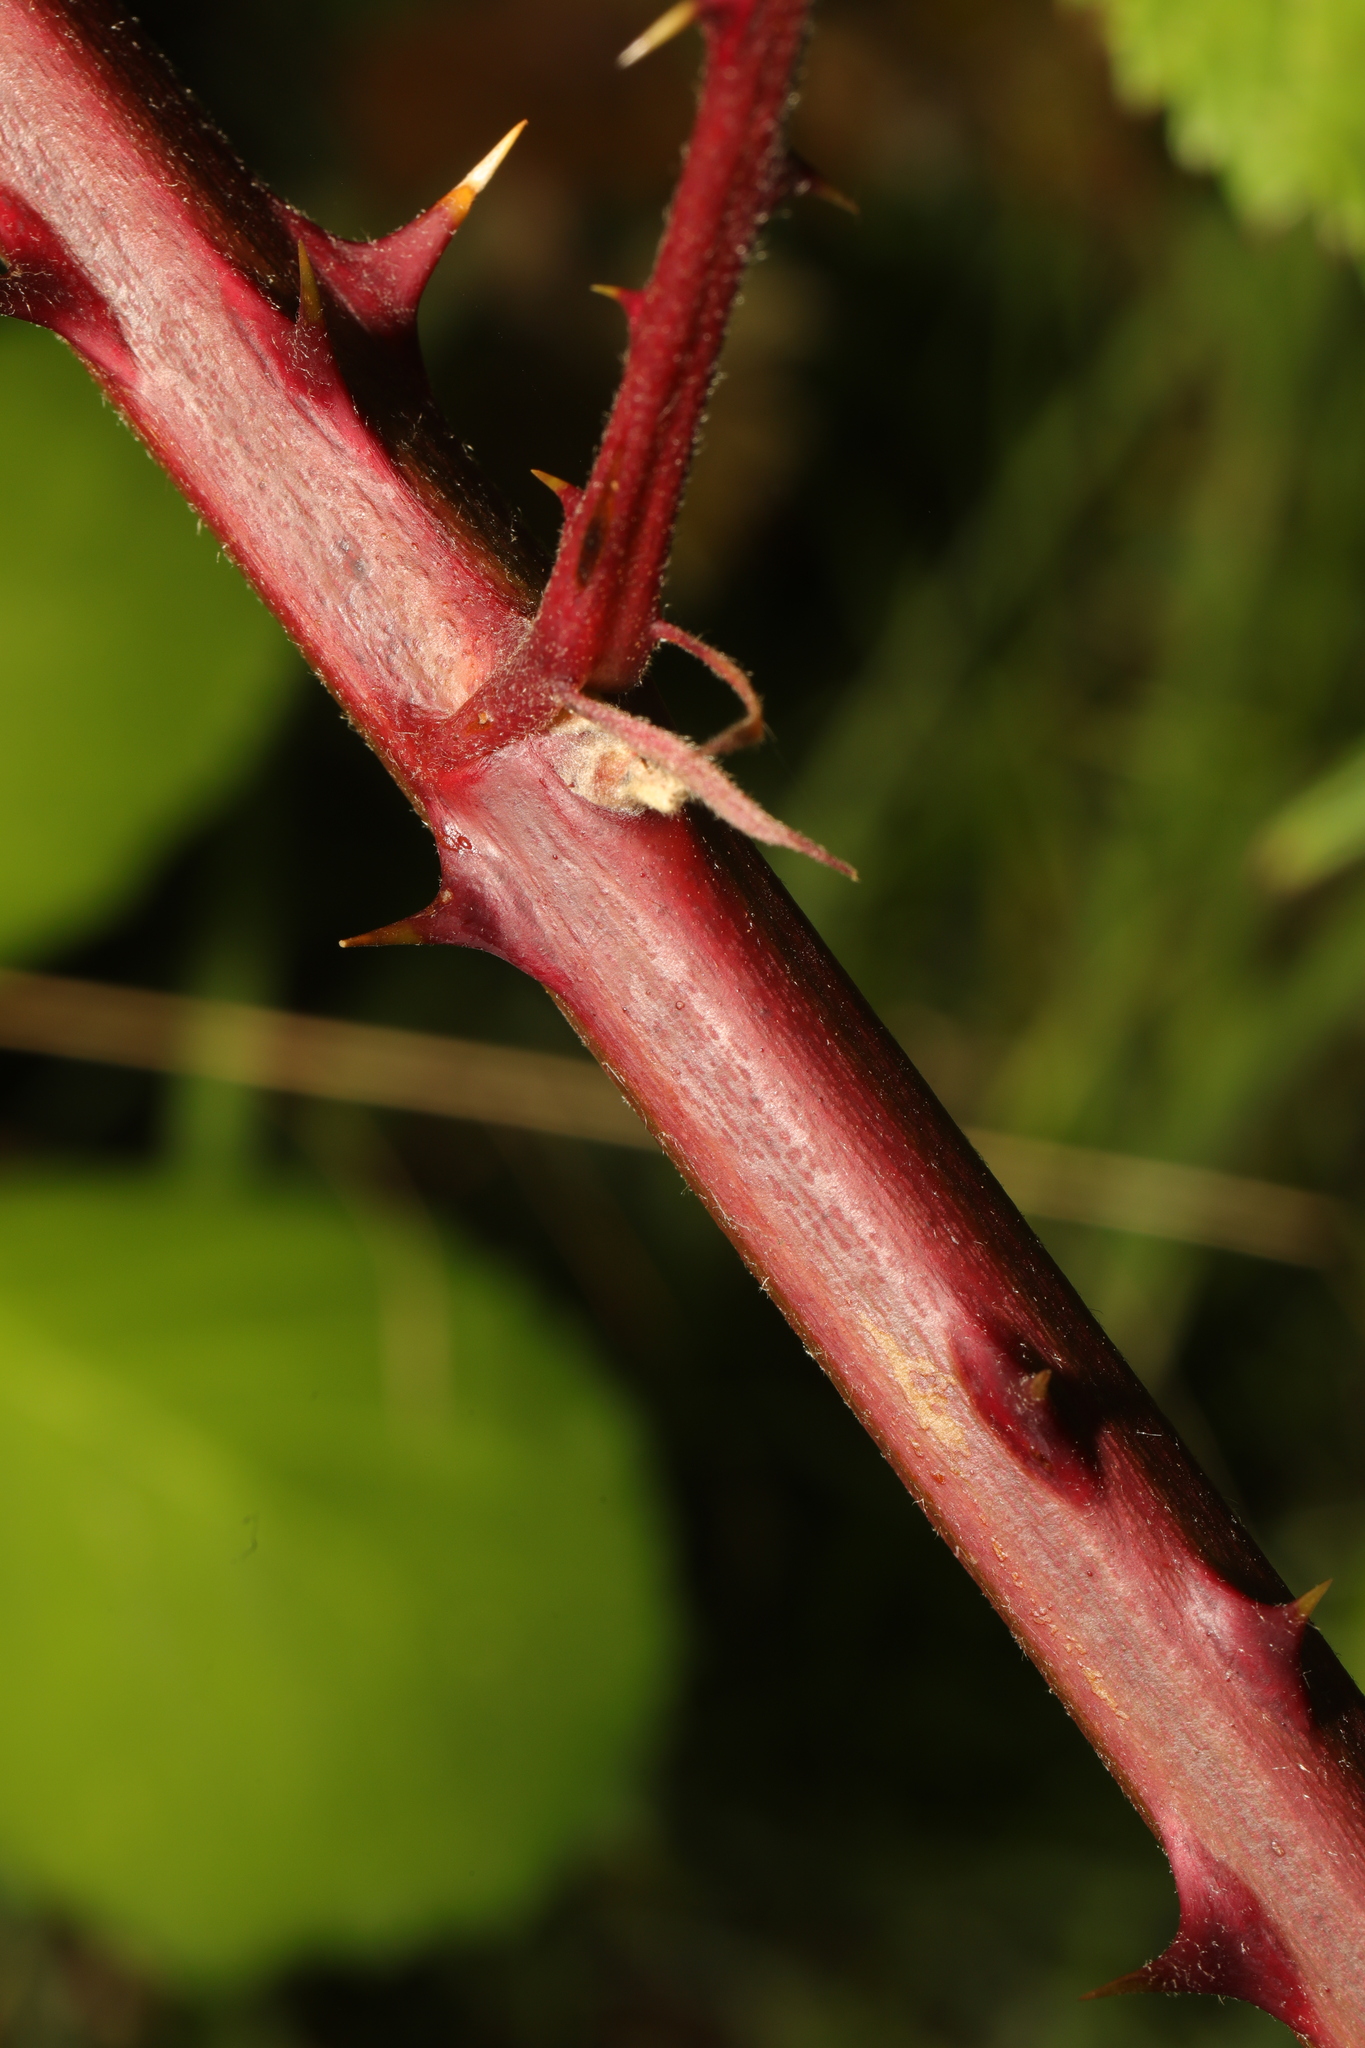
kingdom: Plantae
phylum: Tracheophyta
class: Magnoliopsida
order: Rosales
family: Rosaceae
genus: Rubus
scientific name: Rubus armeniacus
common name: Himalayan blackberry
